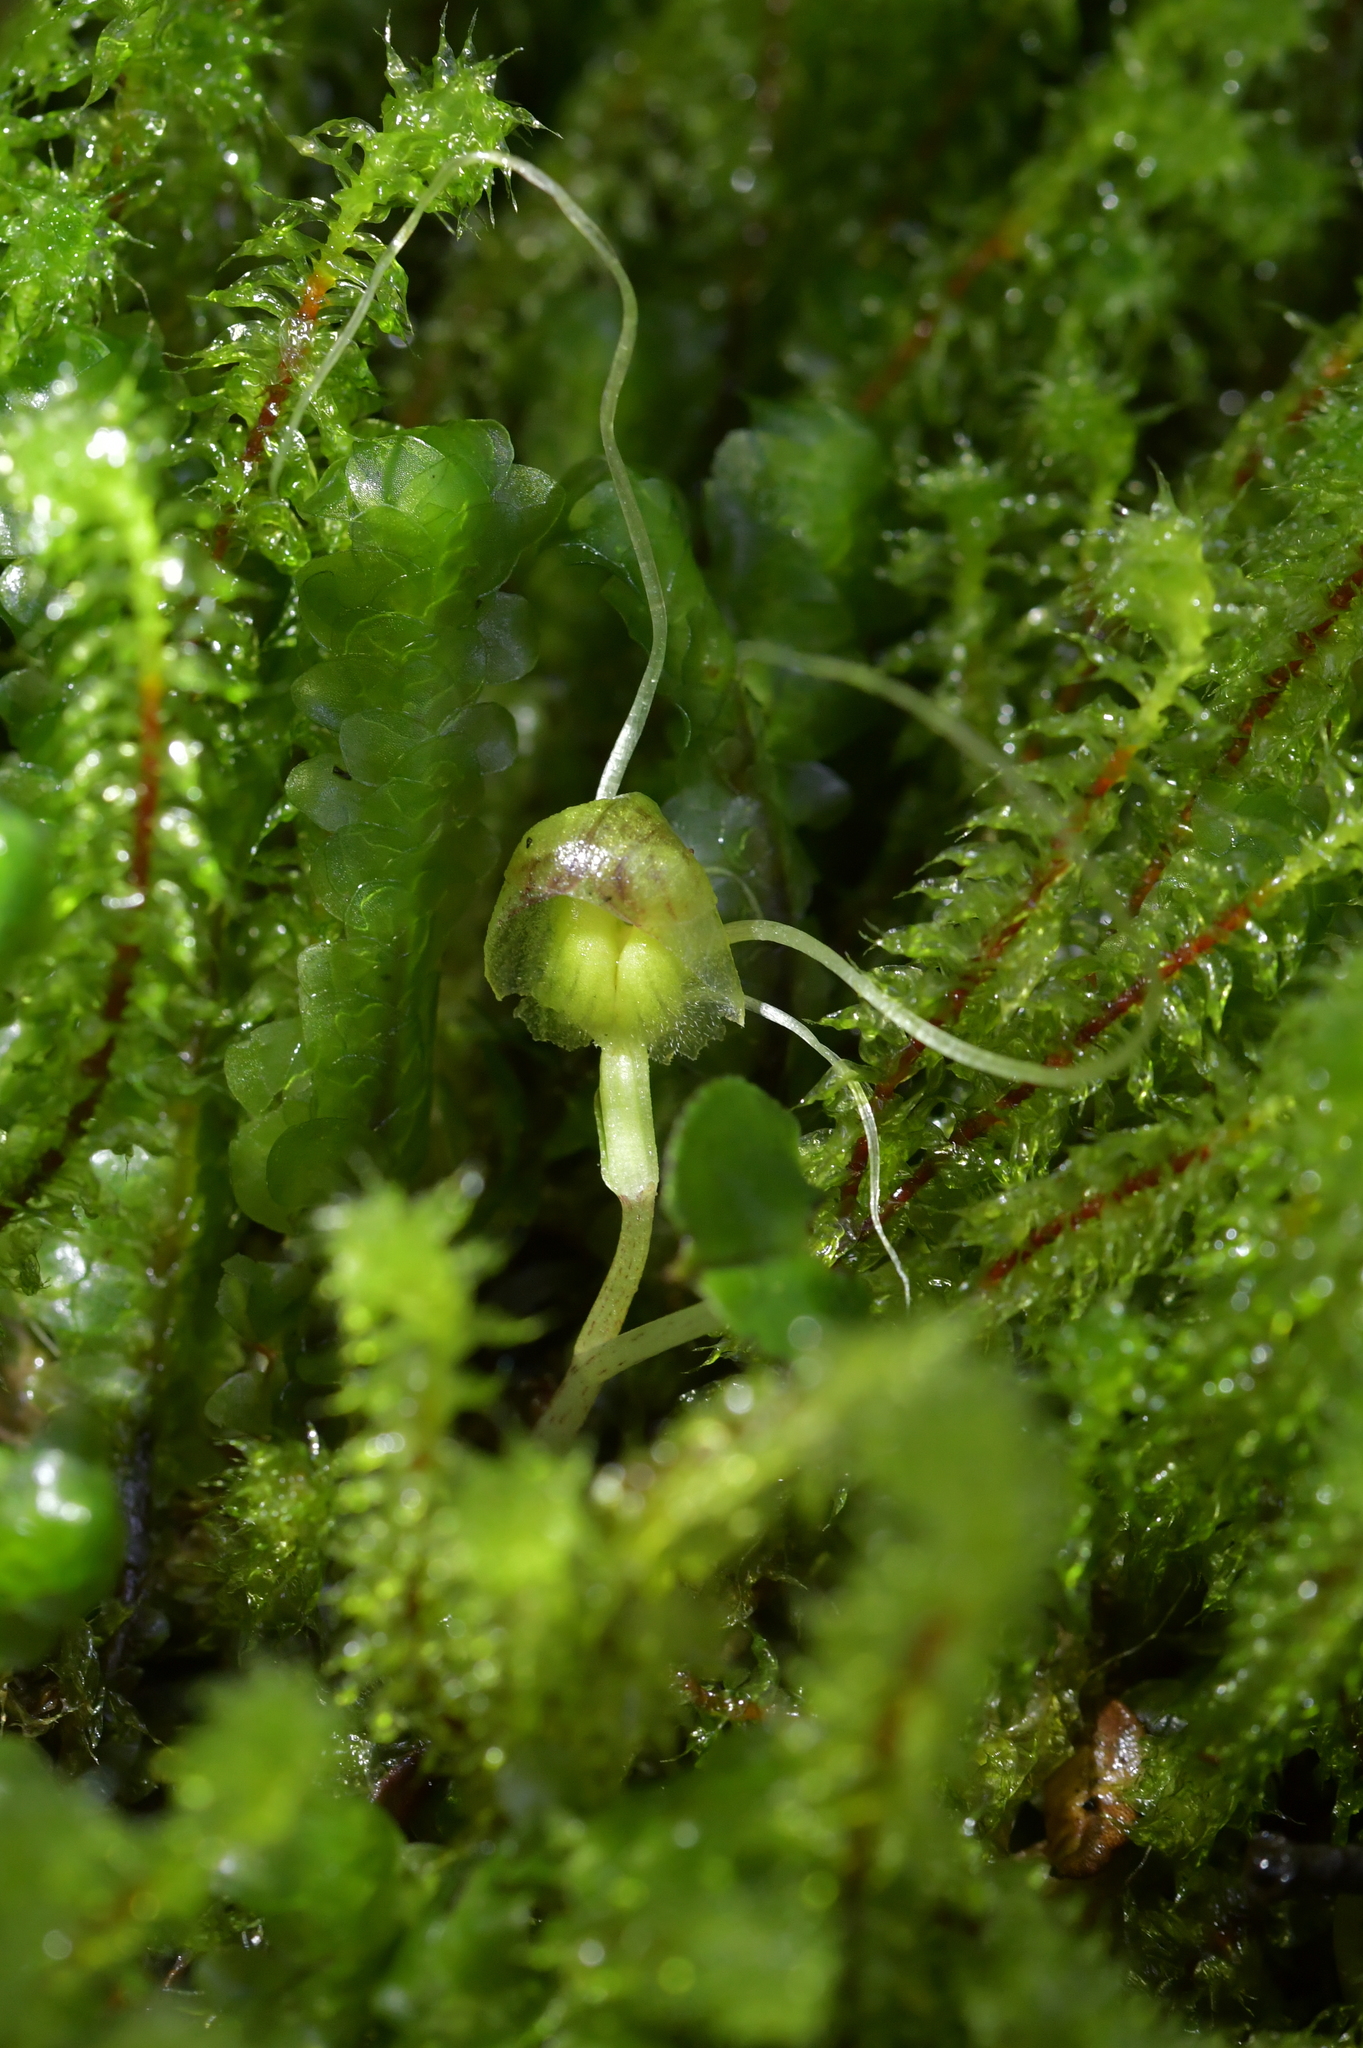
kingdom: Plantae
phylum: Tracheophyta
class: Liliopsida
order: Asparagales
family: Orchidaceae
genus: Corybas
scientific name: Corybas walliae
